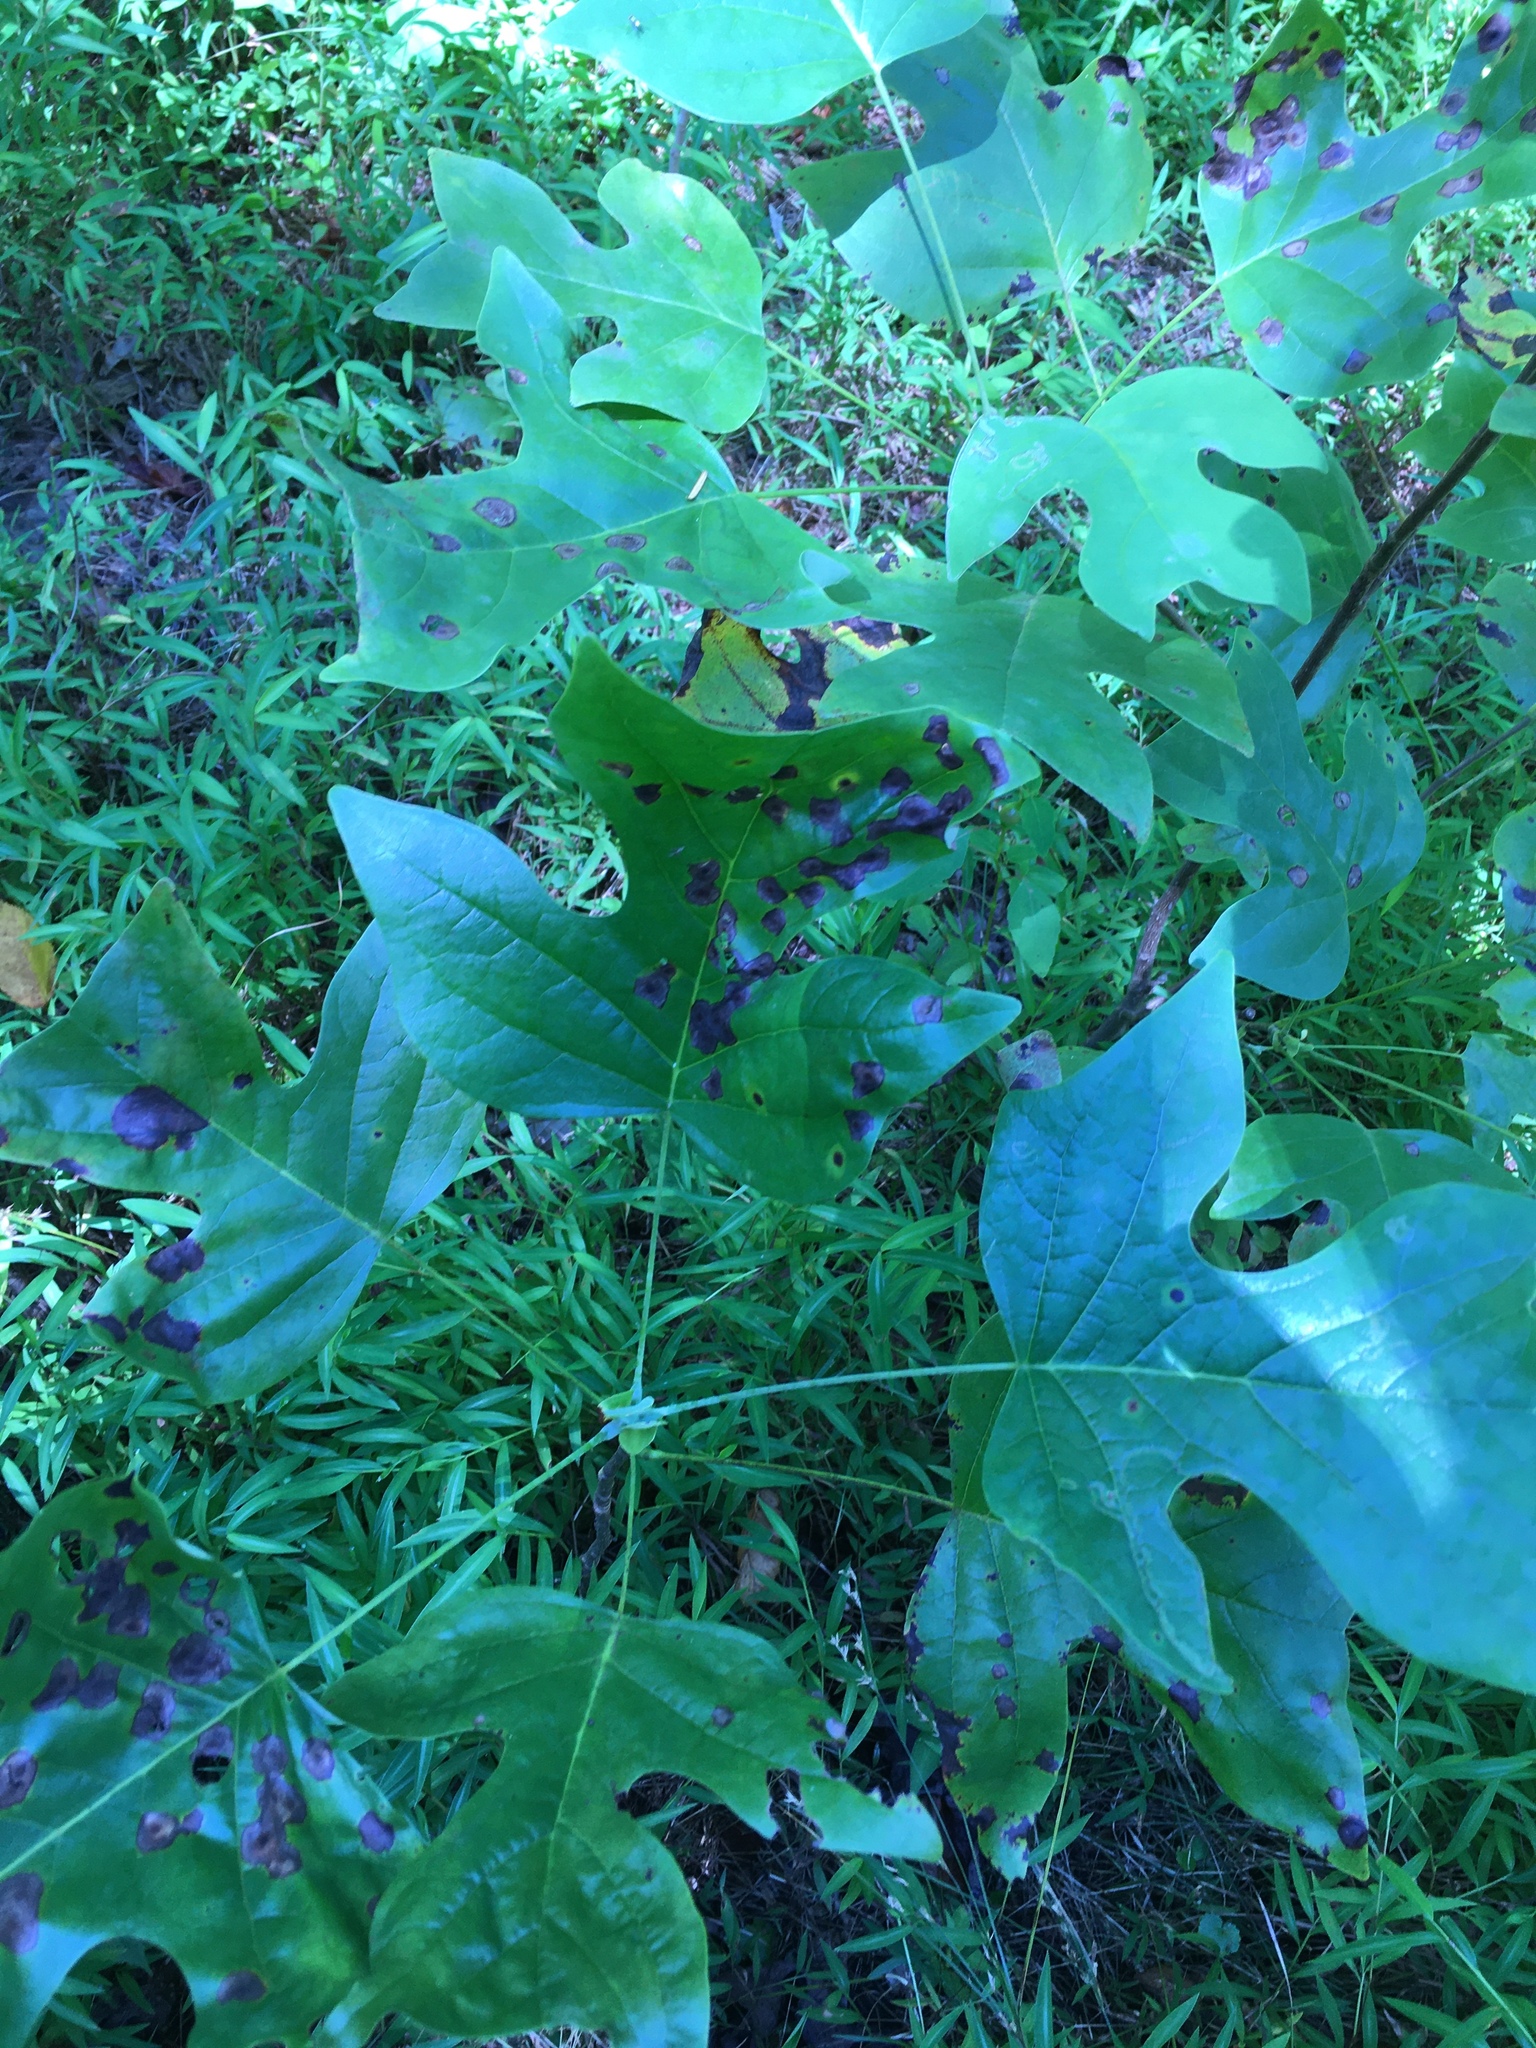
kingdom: Animalia
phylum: Arthropoda
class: Insecta
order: Diptera
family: Cecidomyiidae
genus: Resseliella
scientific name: Resseliella liriodendri
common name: Tulip tree leaf spot gall midge
